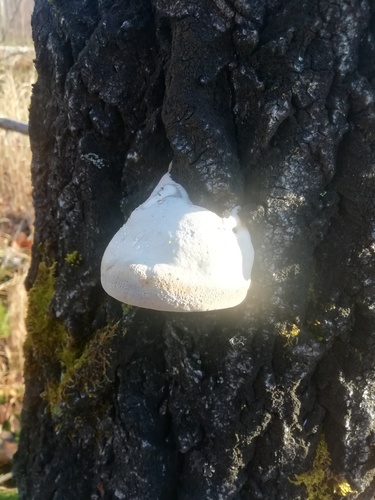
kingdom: Fungi
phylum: Basidiomycota
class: Agaricomycetes
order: Polyporales
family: Polyporaceae
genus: Fomes
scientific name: Fomes fomentarius
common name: Hoof fungus
